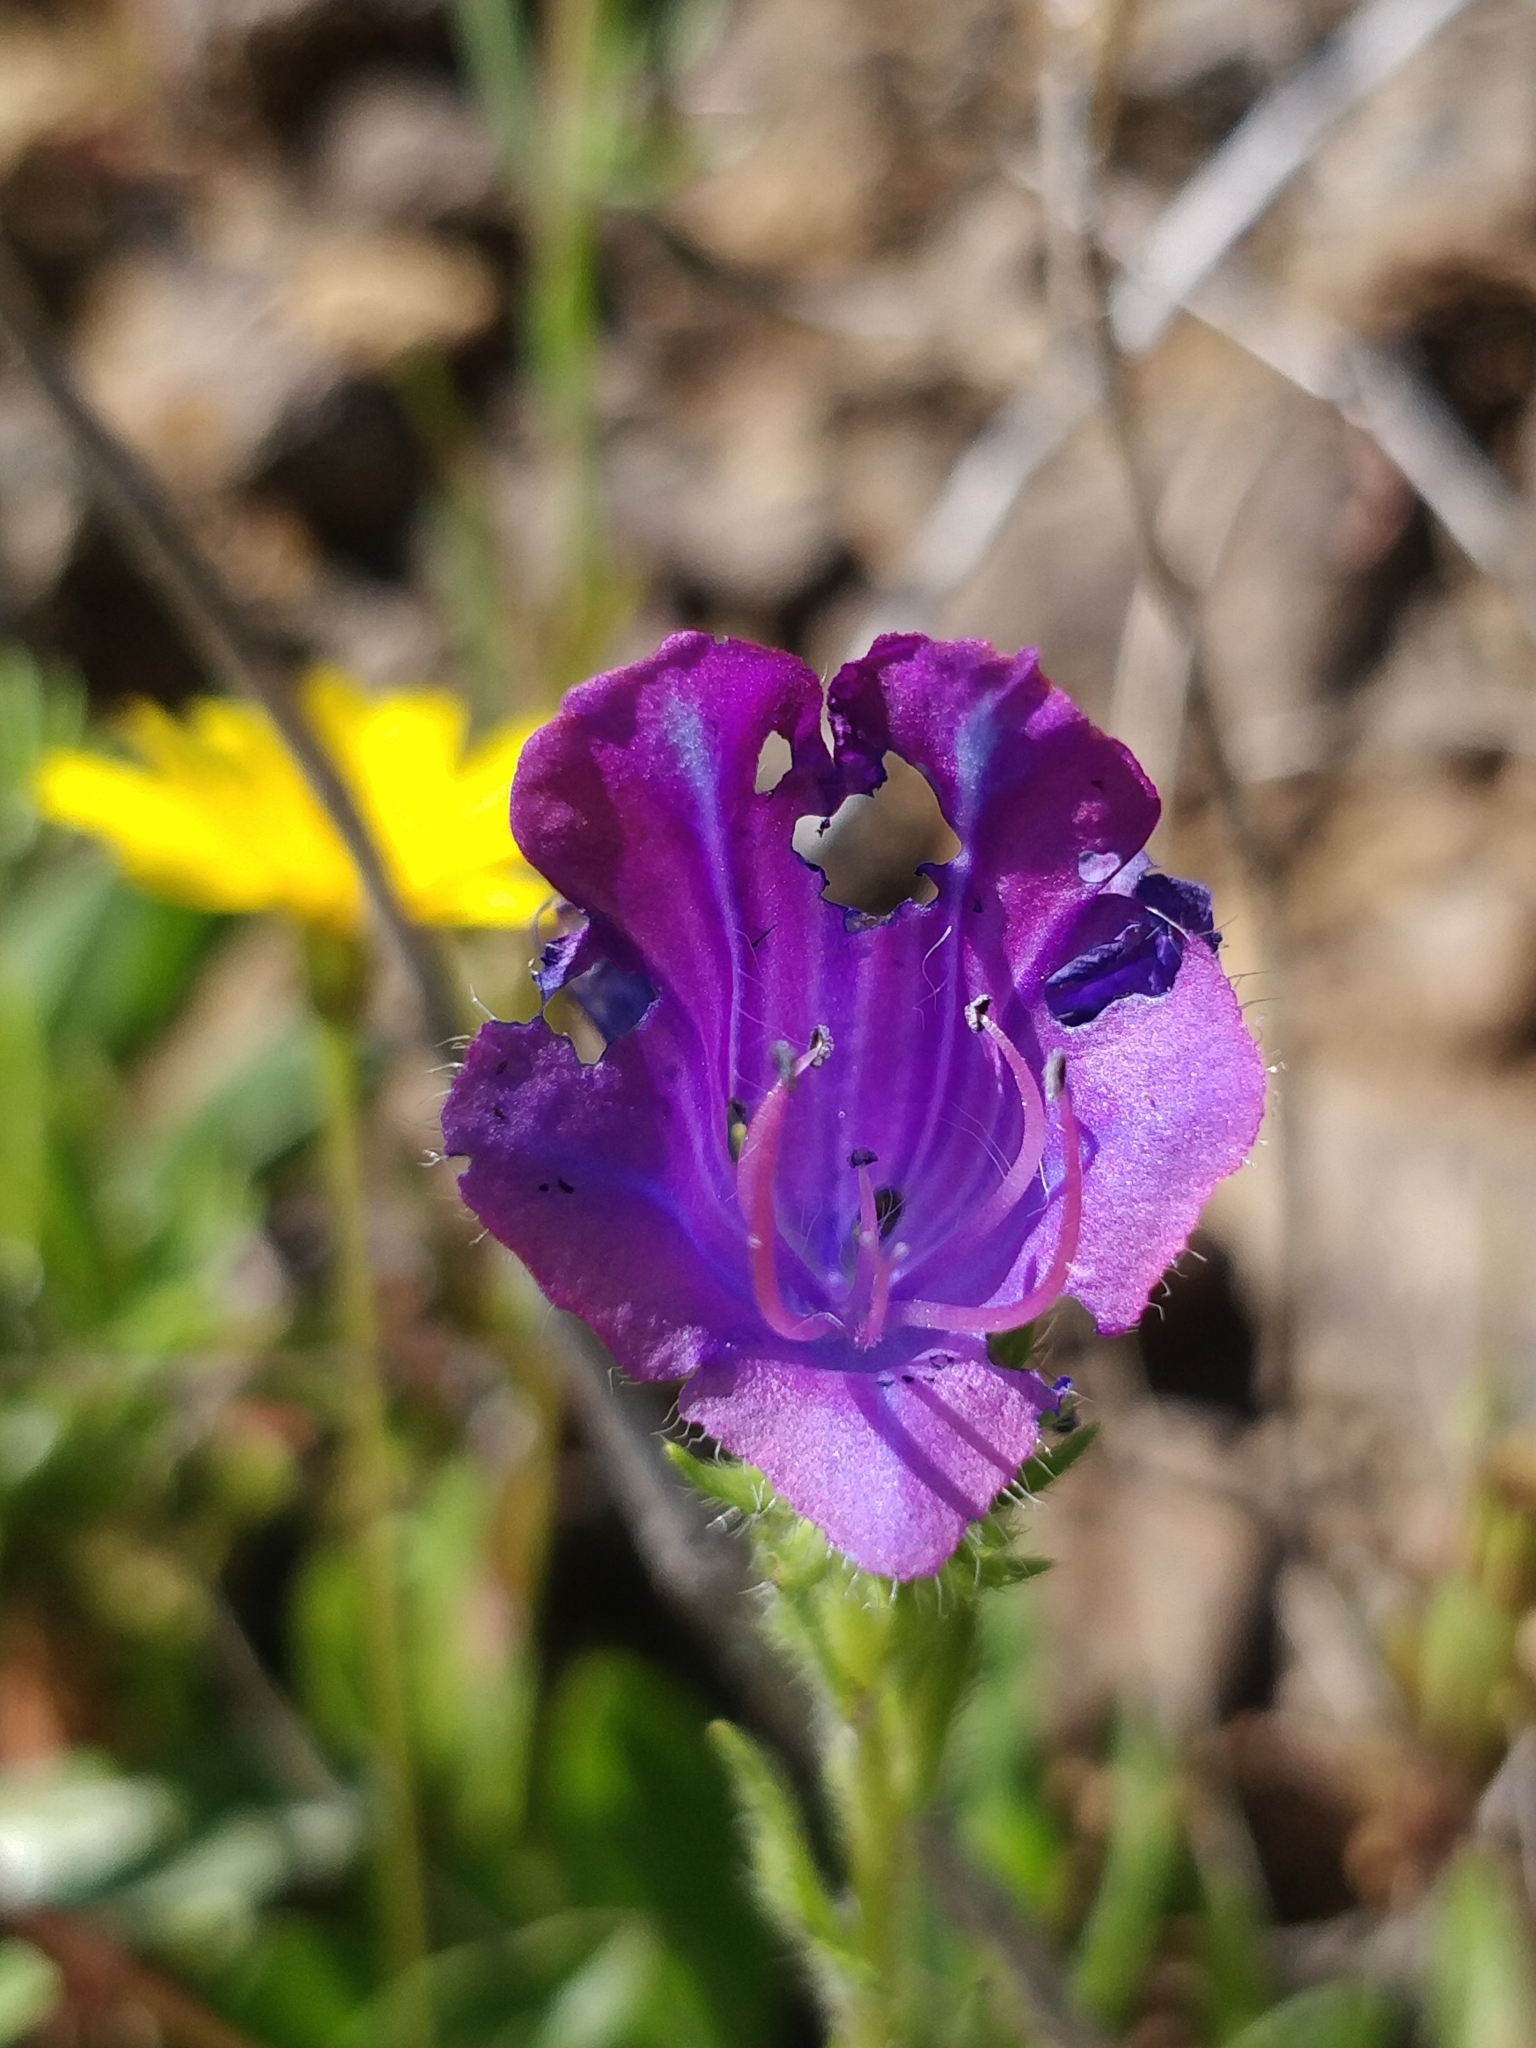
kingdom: Plantae
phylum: Tracheophyta
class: Magnoliopsida
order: Boraginales
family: Boraginaceae
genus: Echium
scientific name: Echium plantagineum
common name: Purple viper's-bugloss
